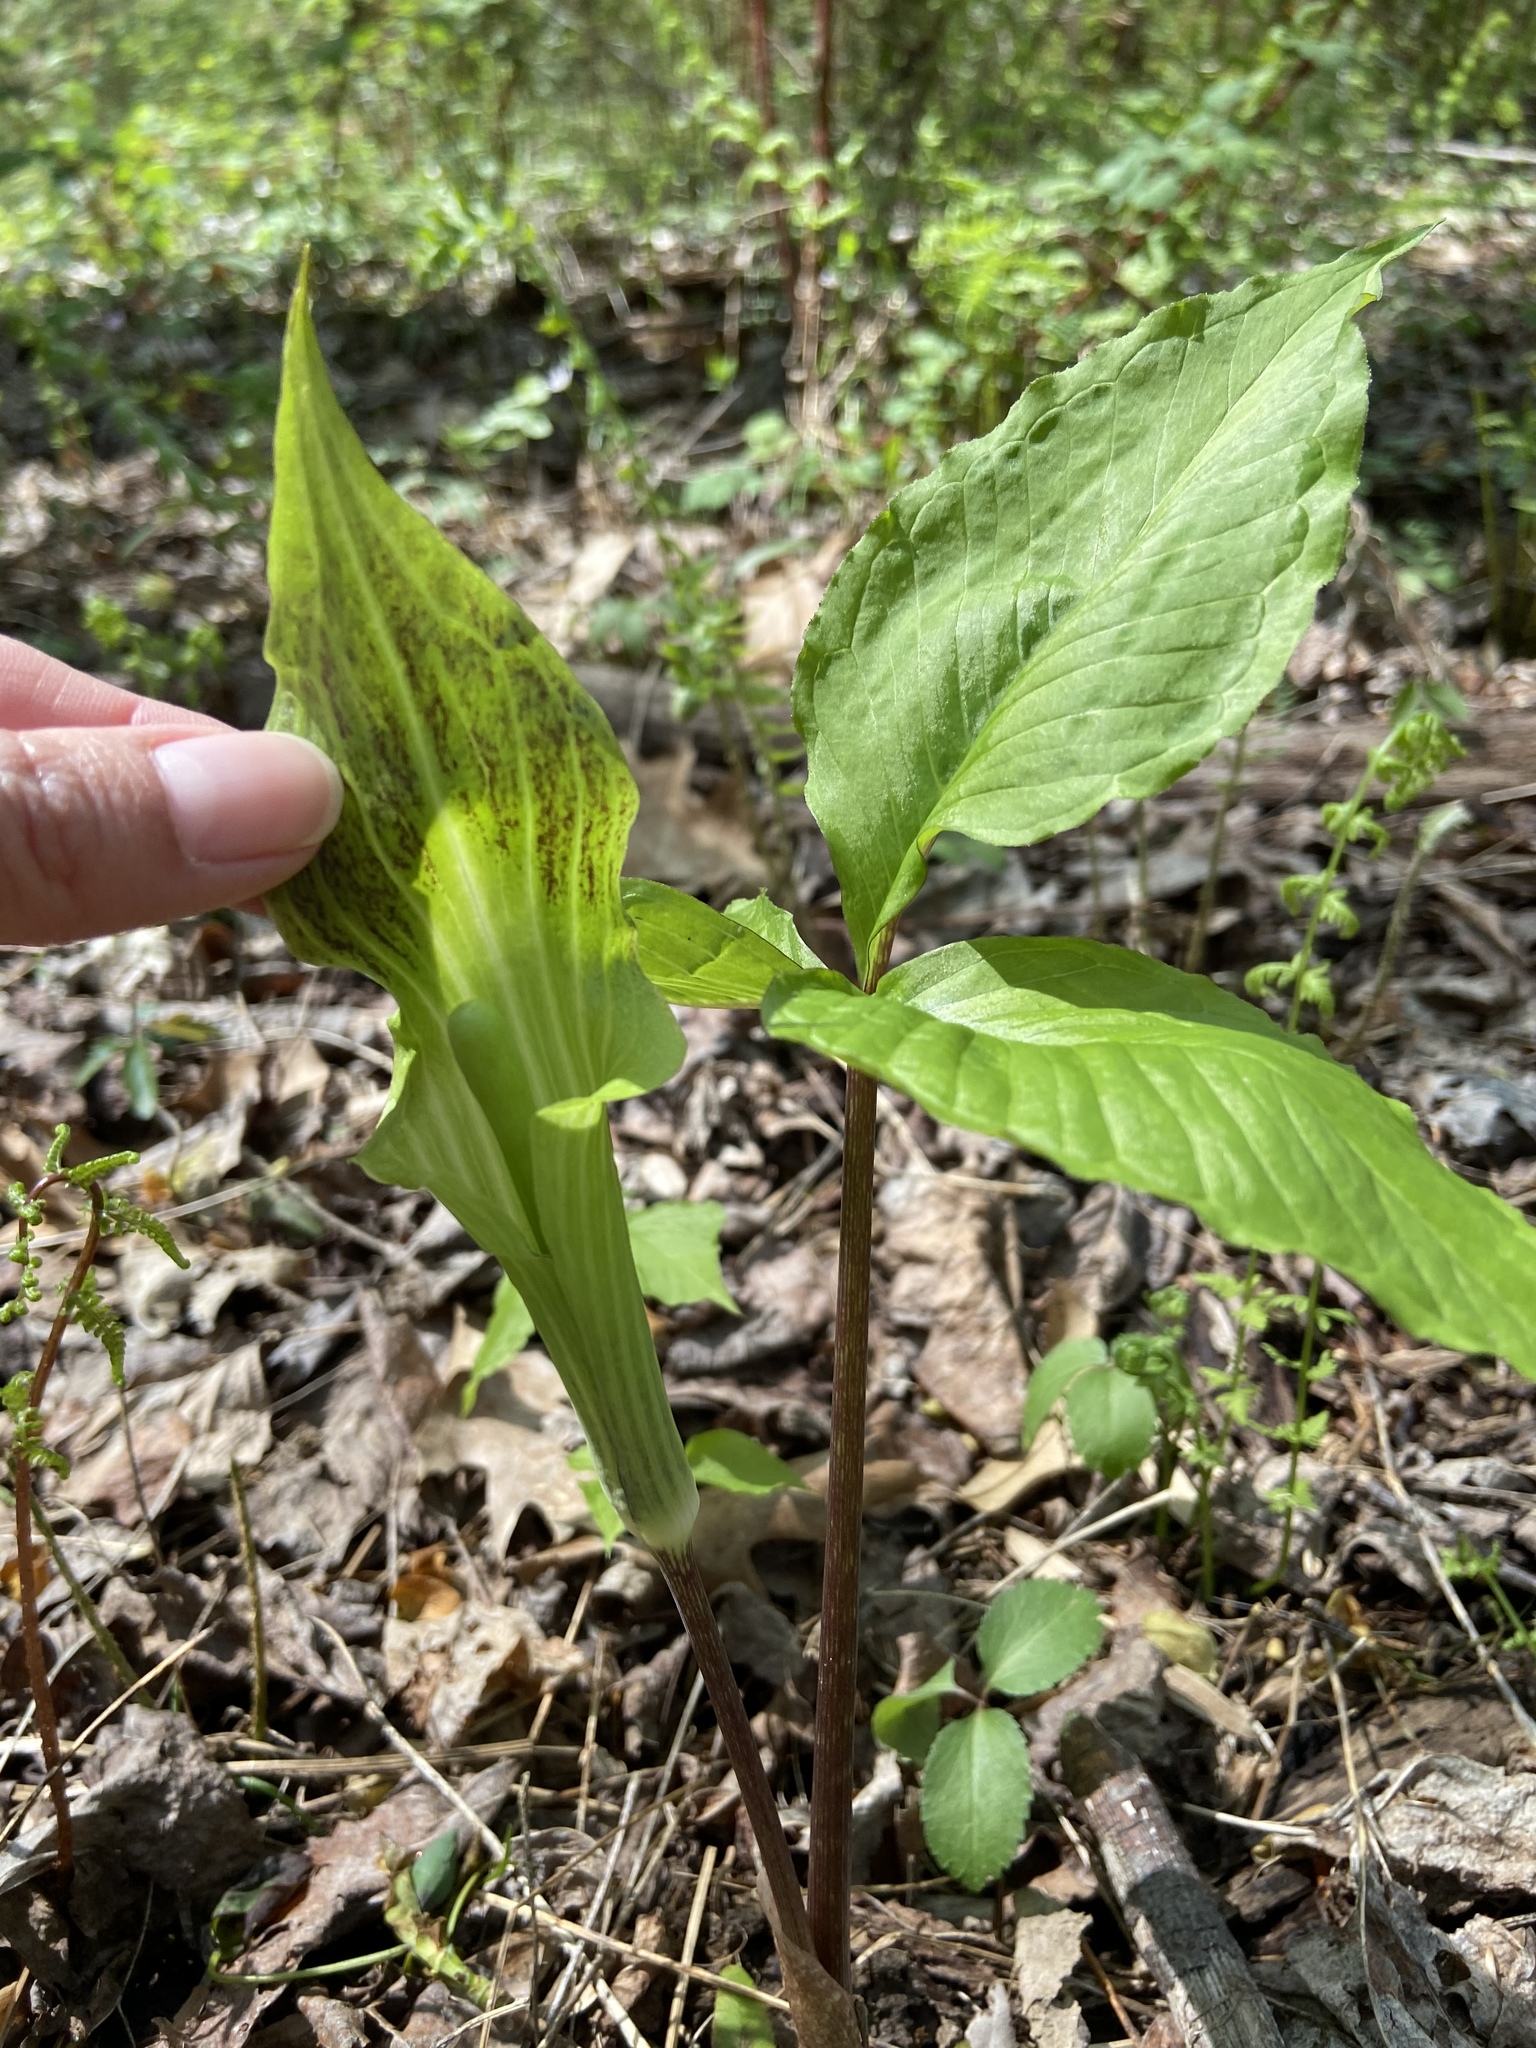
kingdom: Plantae
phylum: Tracheophyta
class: Liliopsida
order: Alismatales
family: Araceae
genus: Arisaema
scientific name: Arisaema triphyllum
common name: Jack-in-the-pulpit
